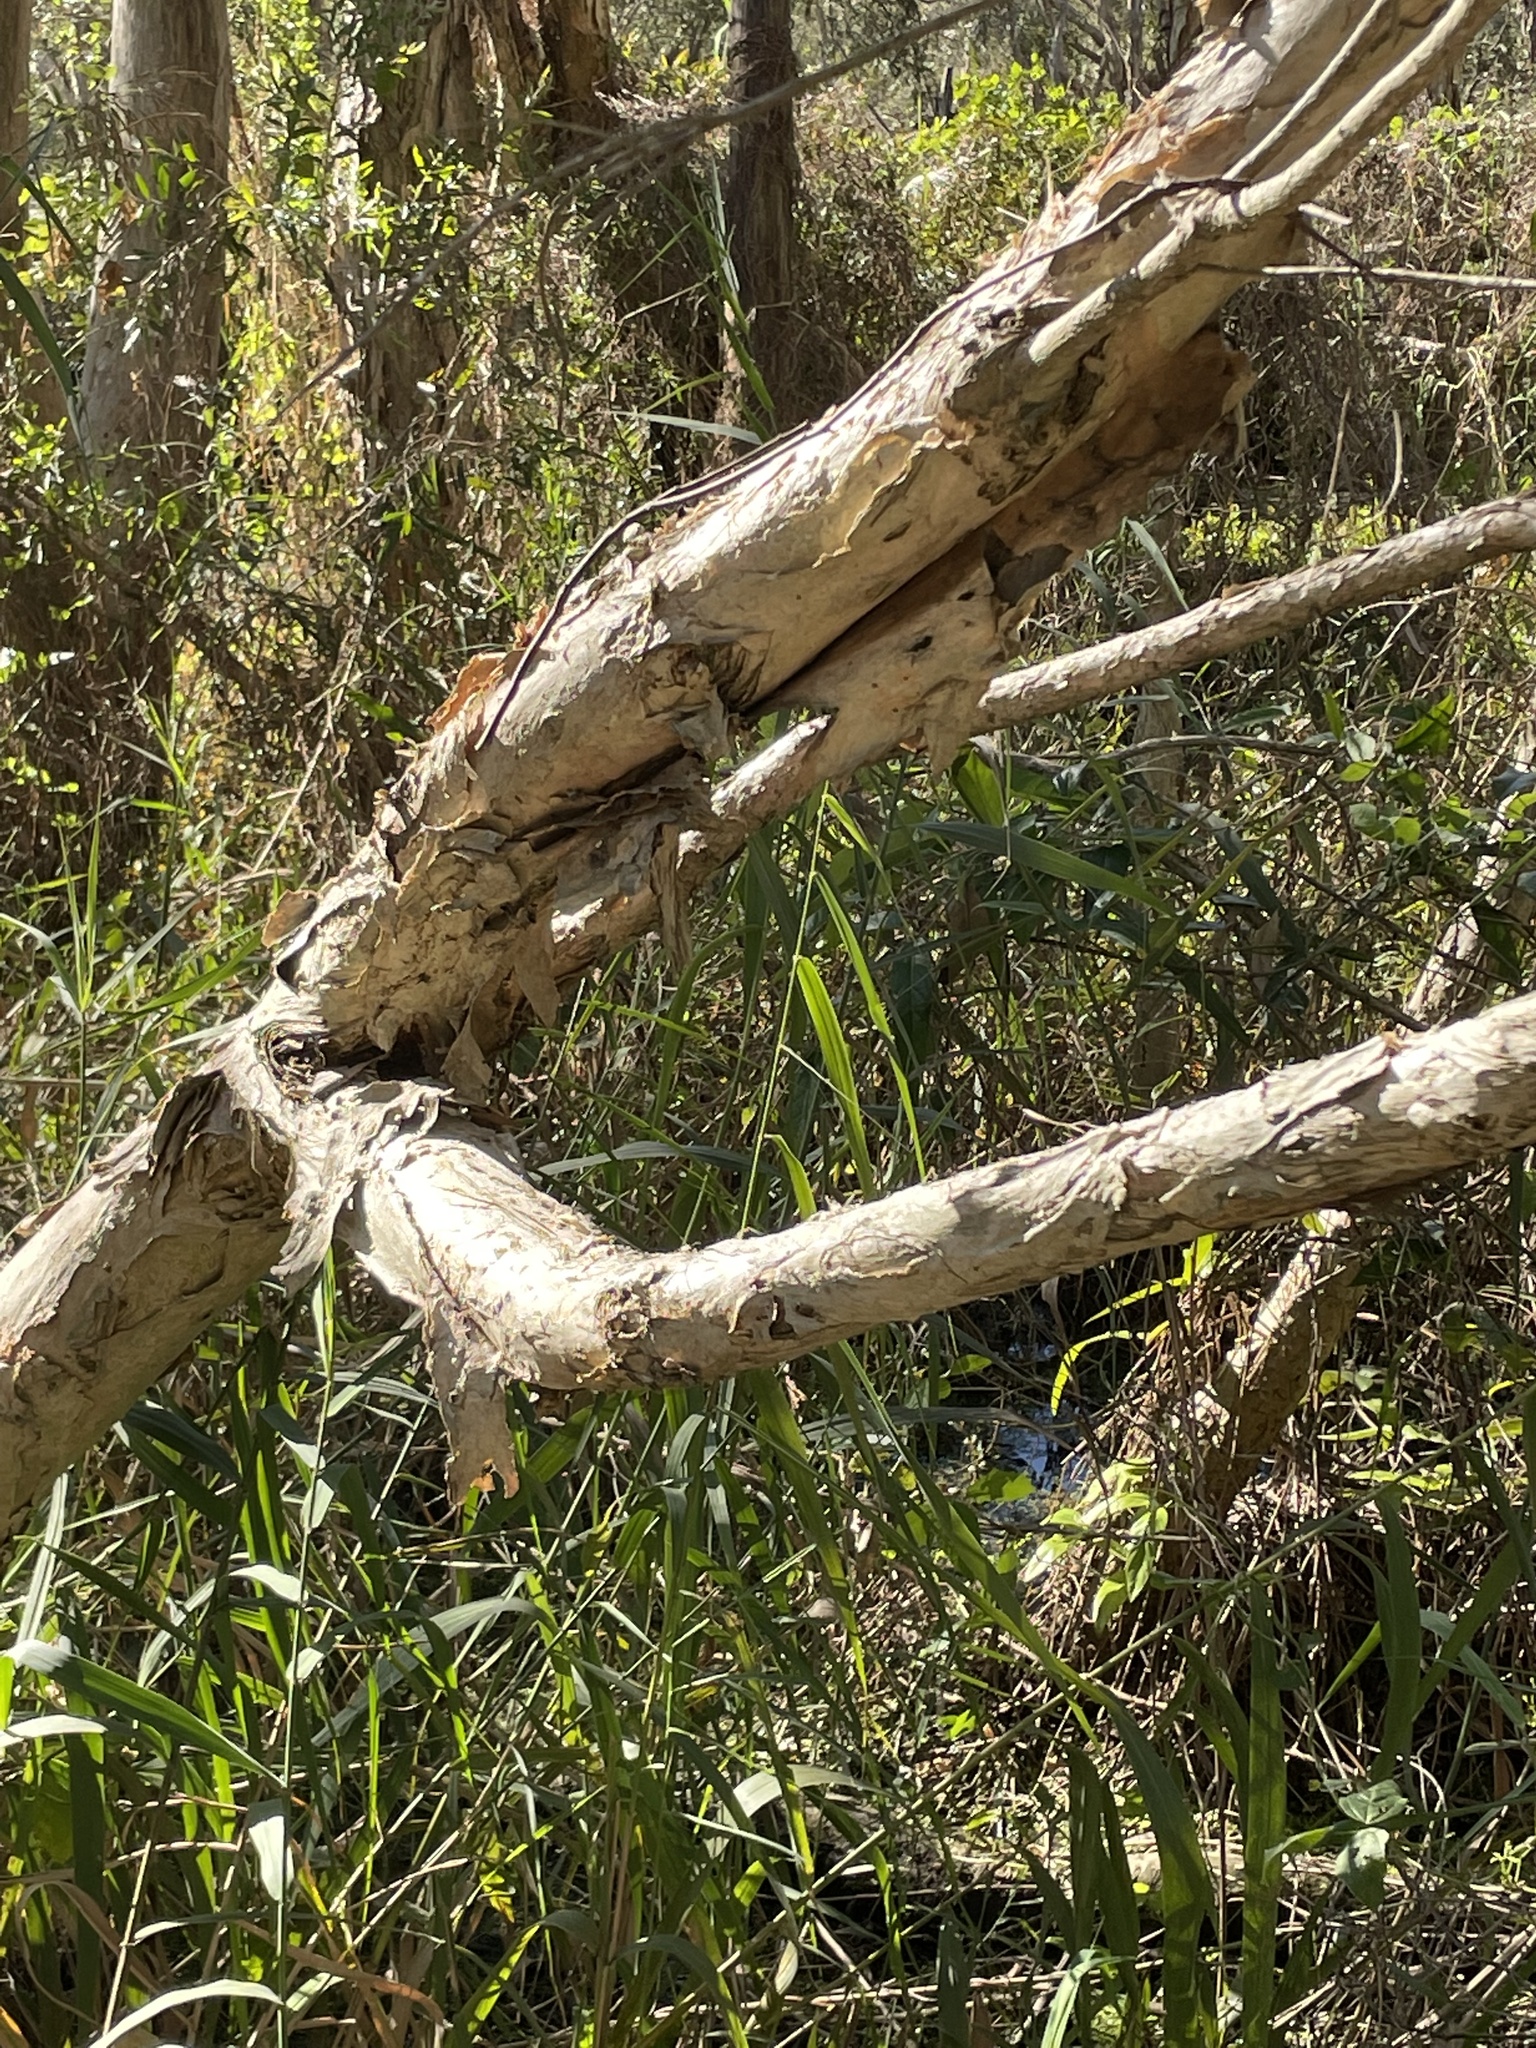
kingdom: Plantae
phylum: Tracheophyta
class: Magnoliopsida
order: Myrtales
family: Myrtaceae
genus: Melaleuca
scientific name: Melaleuca quinquenervia
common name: Punktree
